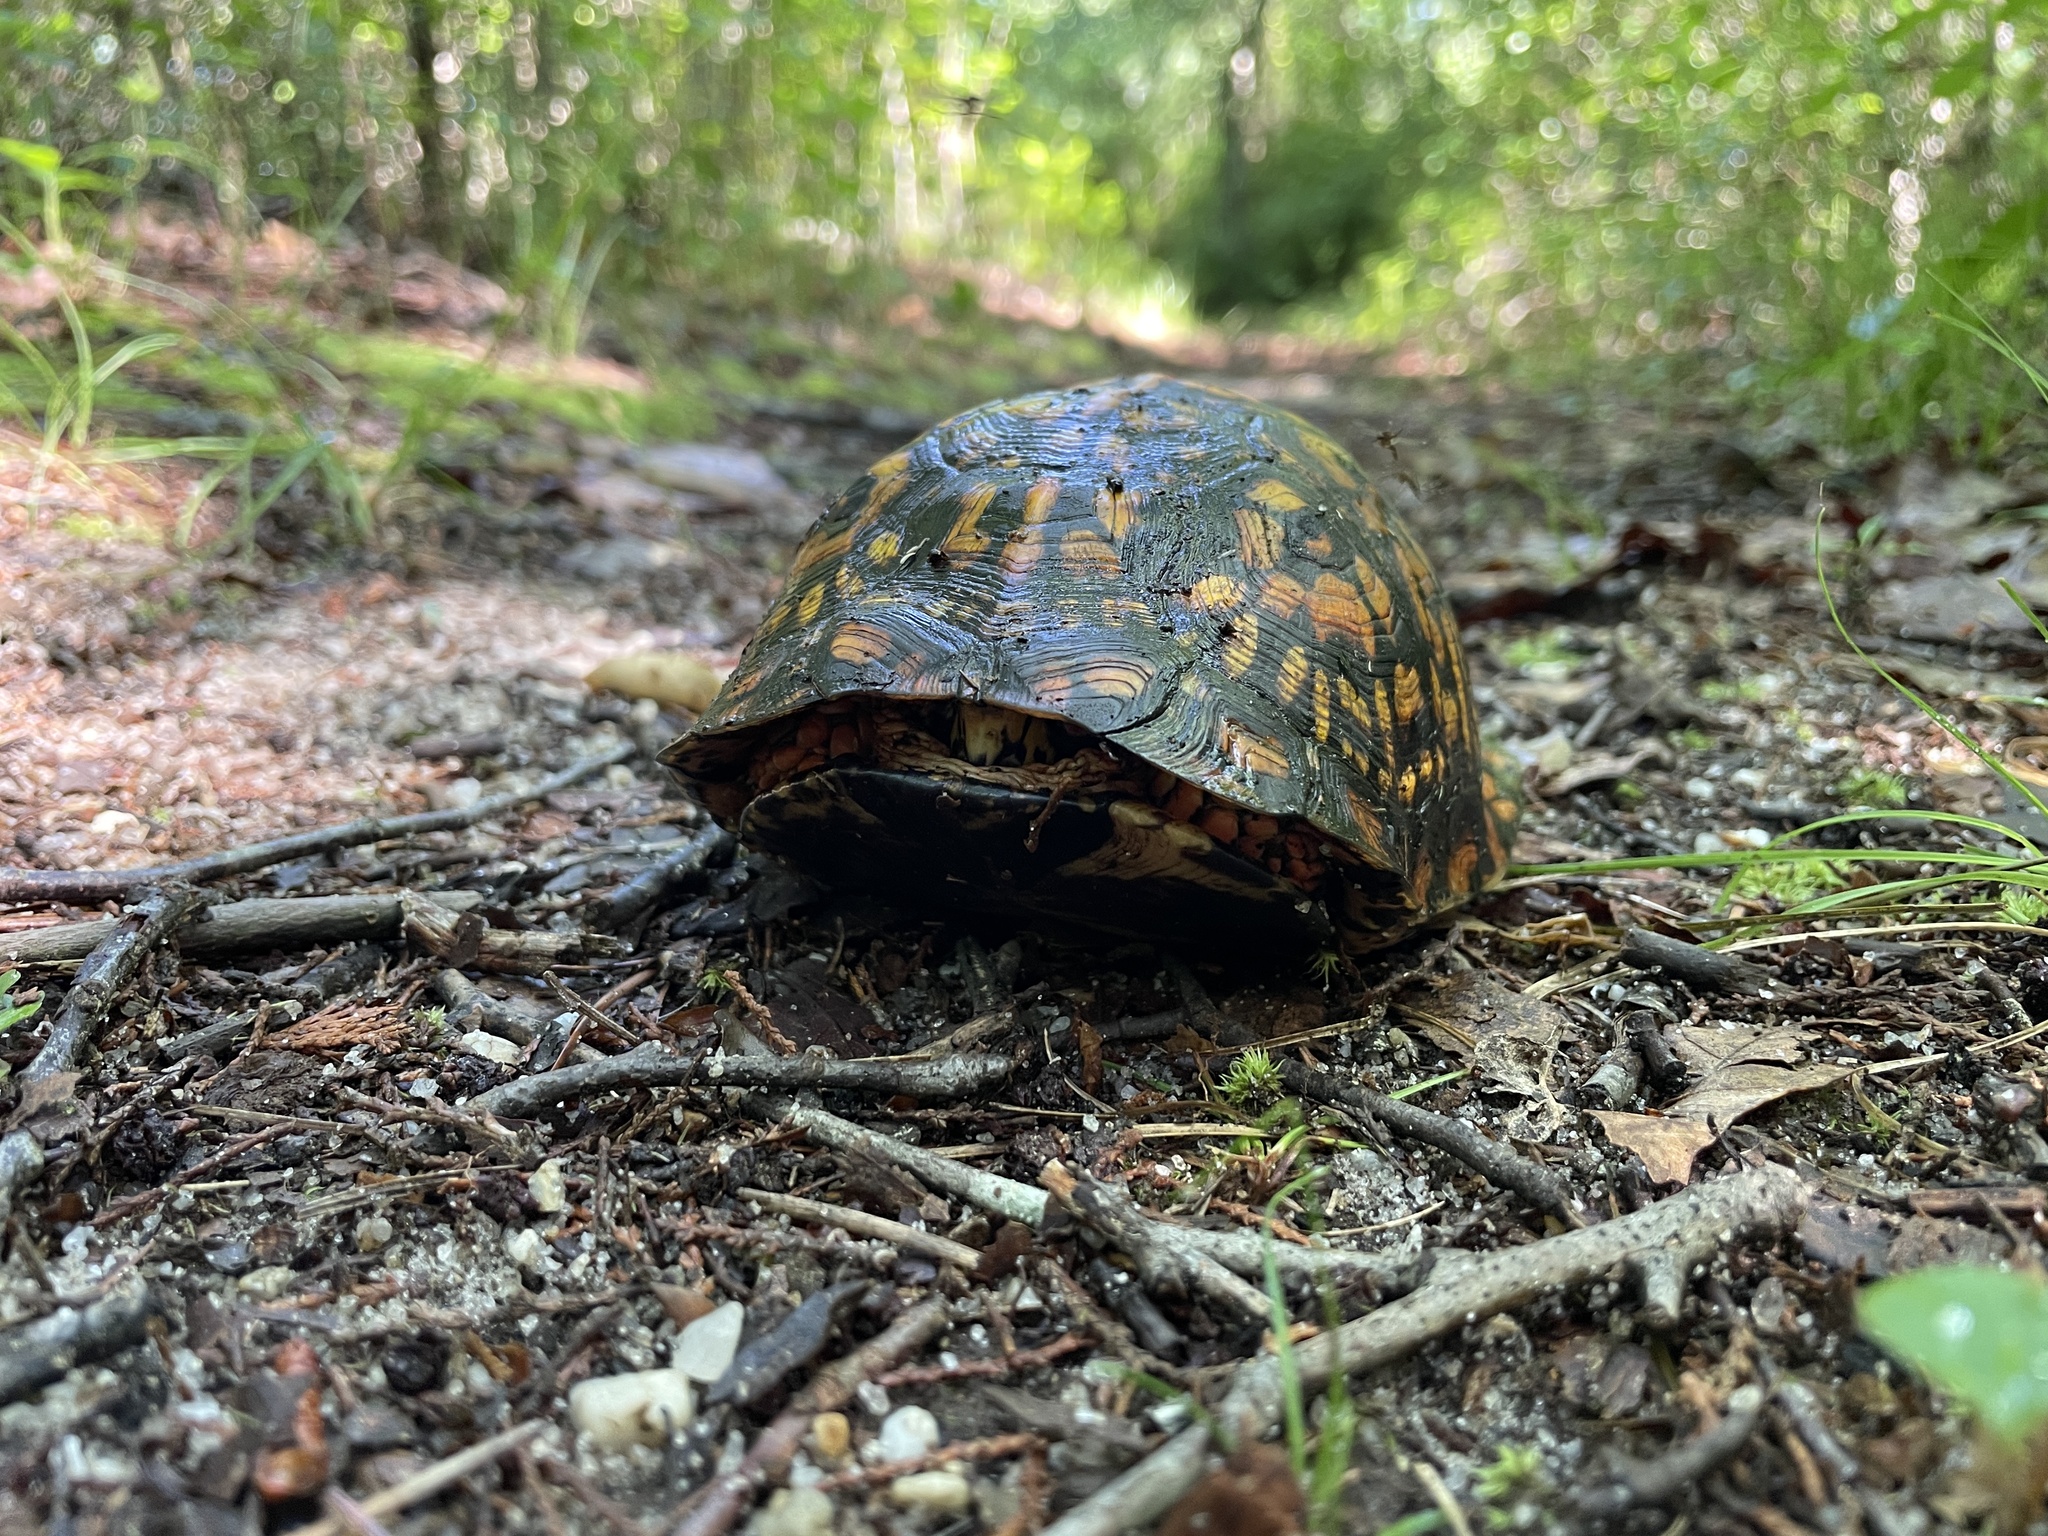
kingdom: Animalia
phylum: Chordata
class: Testudines
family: Emydidae
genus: Terrapene
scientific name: Terrapene carolina
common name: Common box turtle
